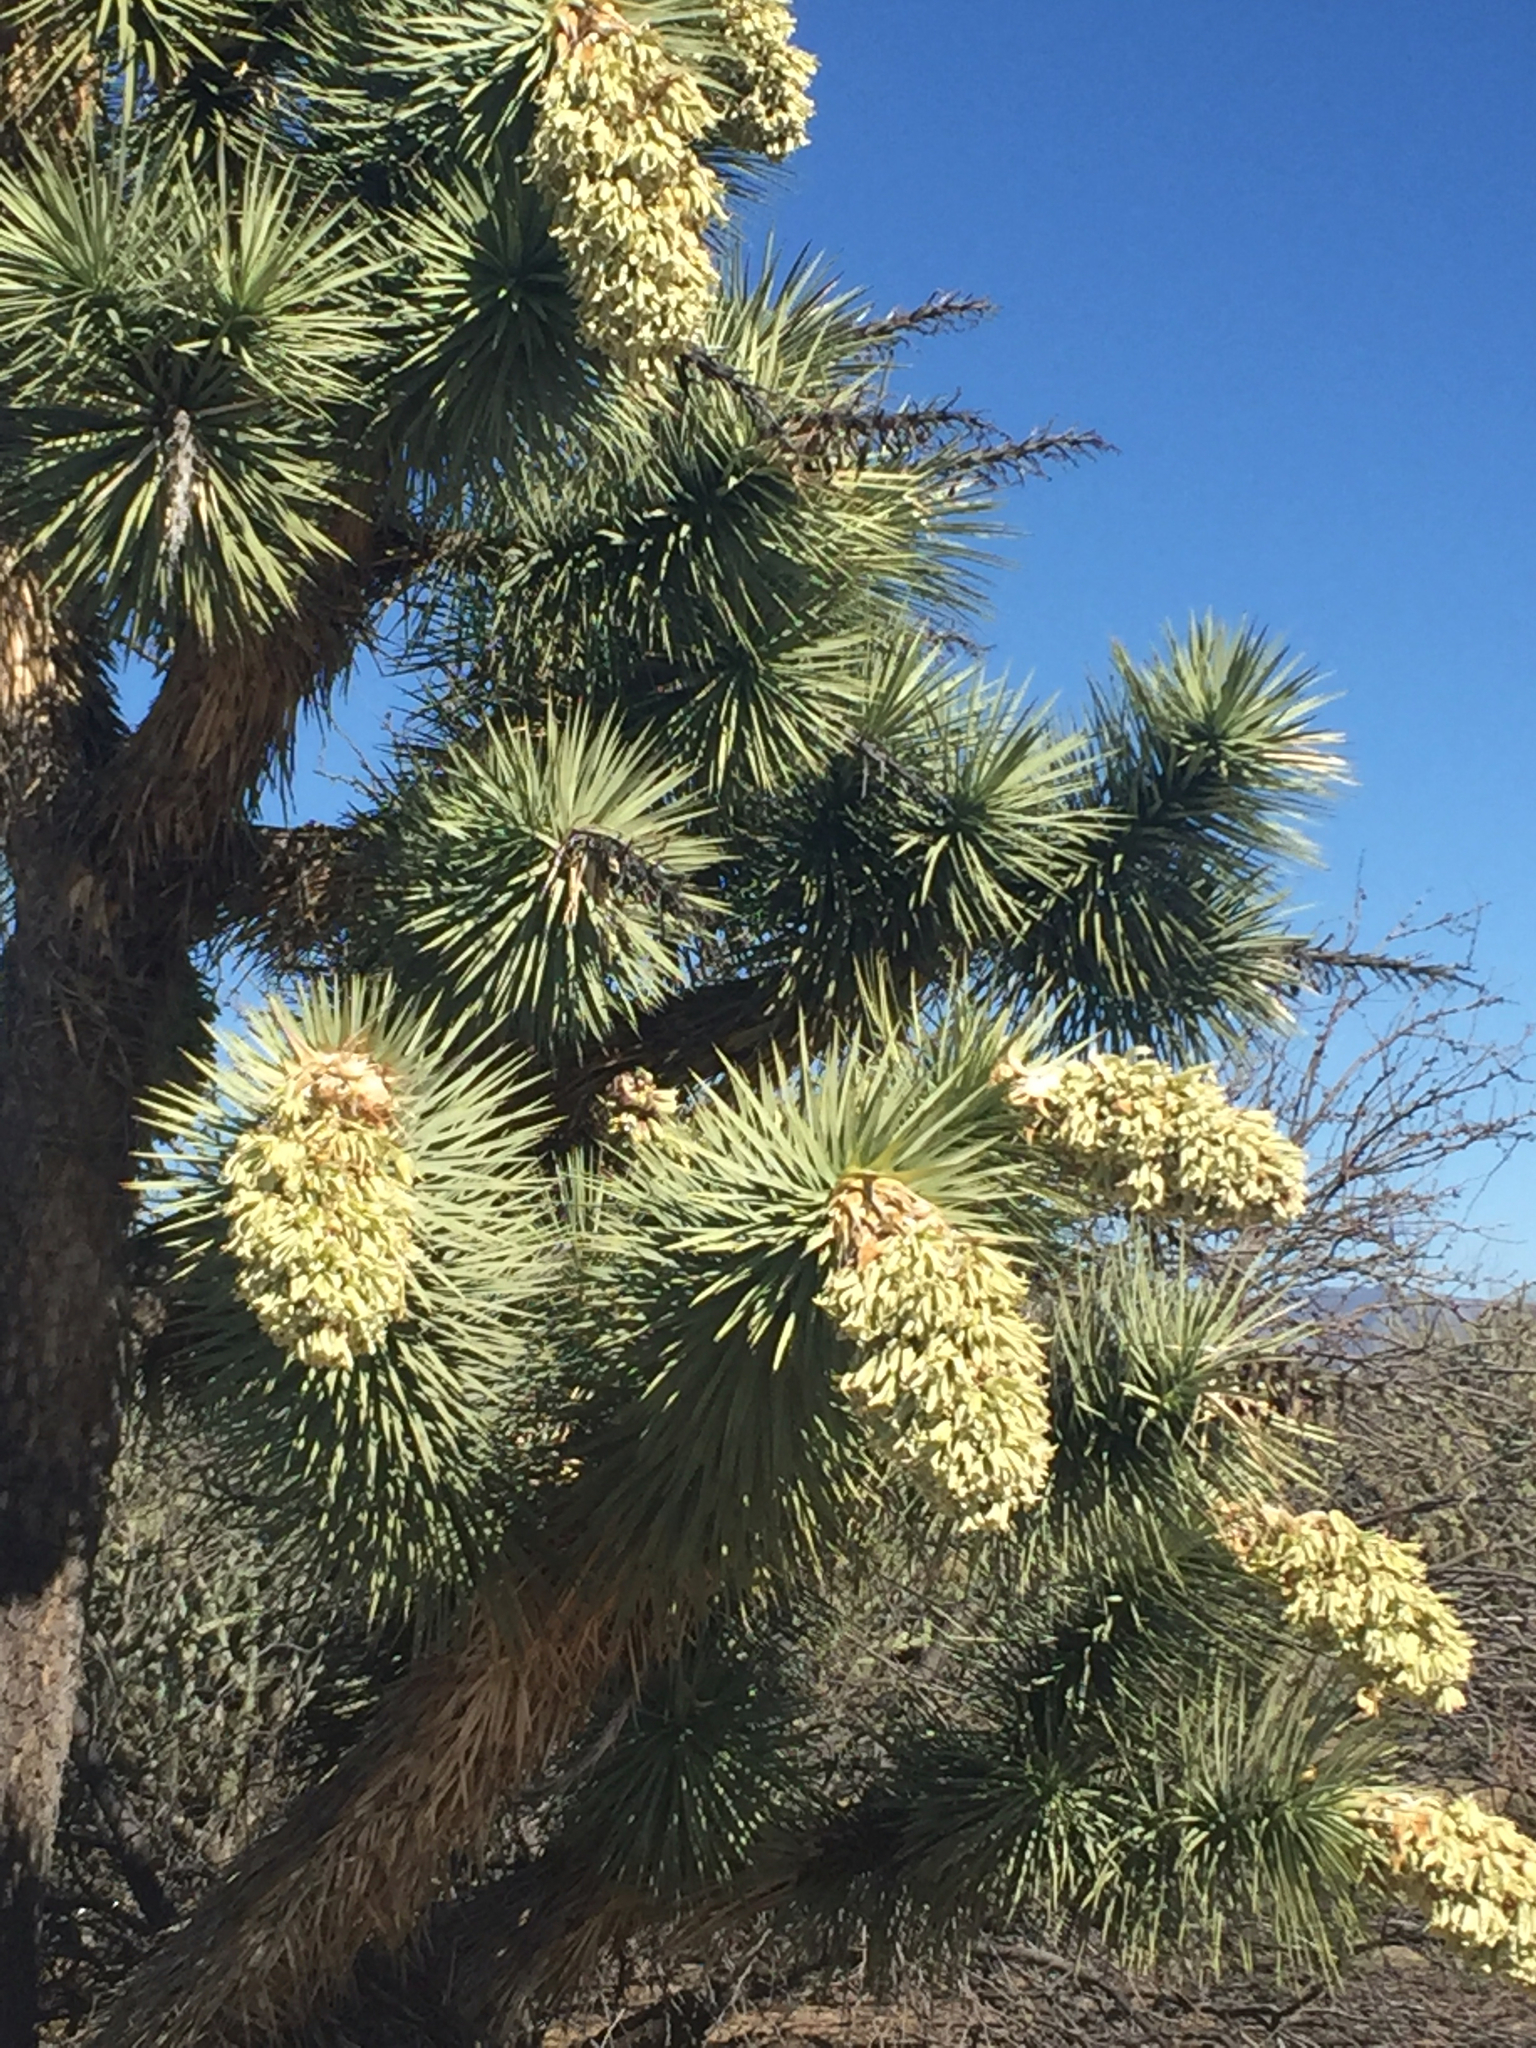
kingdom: Plantae
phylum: Tracheophyta
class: Liliopsida
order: Asparagales
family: Asparagaceae
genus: Yucca
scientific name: Yucca brevifolia
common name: Joshua tree
